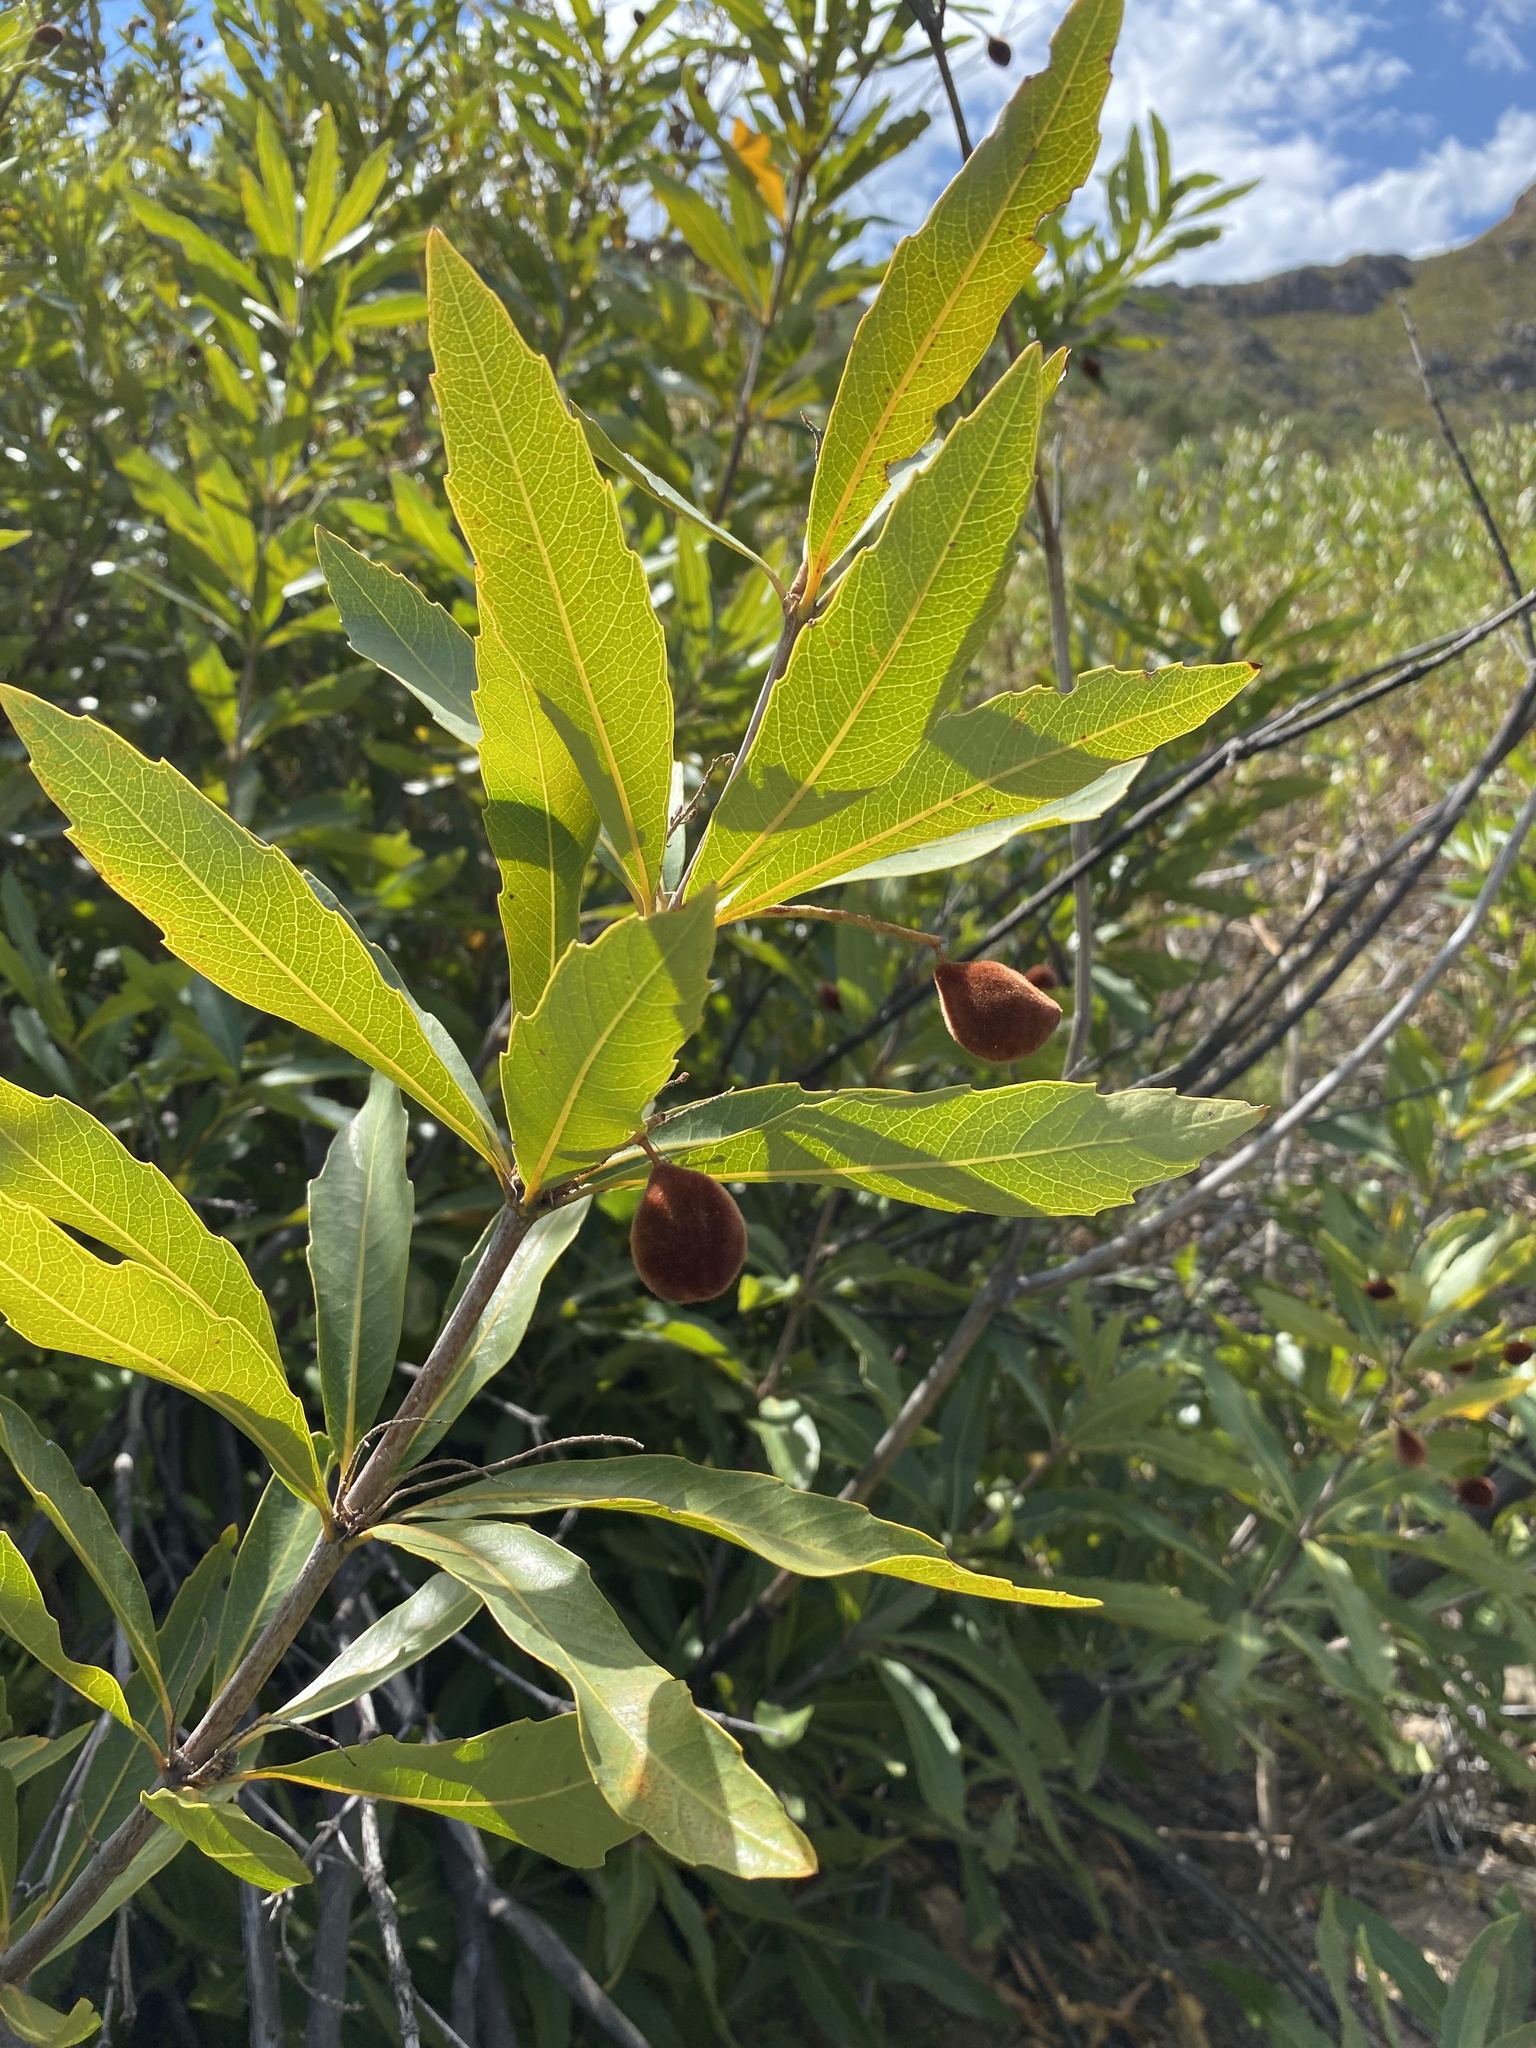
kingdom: Plantae
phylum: Tracheophyta
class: Magnoliopsida
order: Proteales
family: Proteaceae
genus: Brabejum
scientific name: Brabejum stellatifolium
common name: Wild almond
